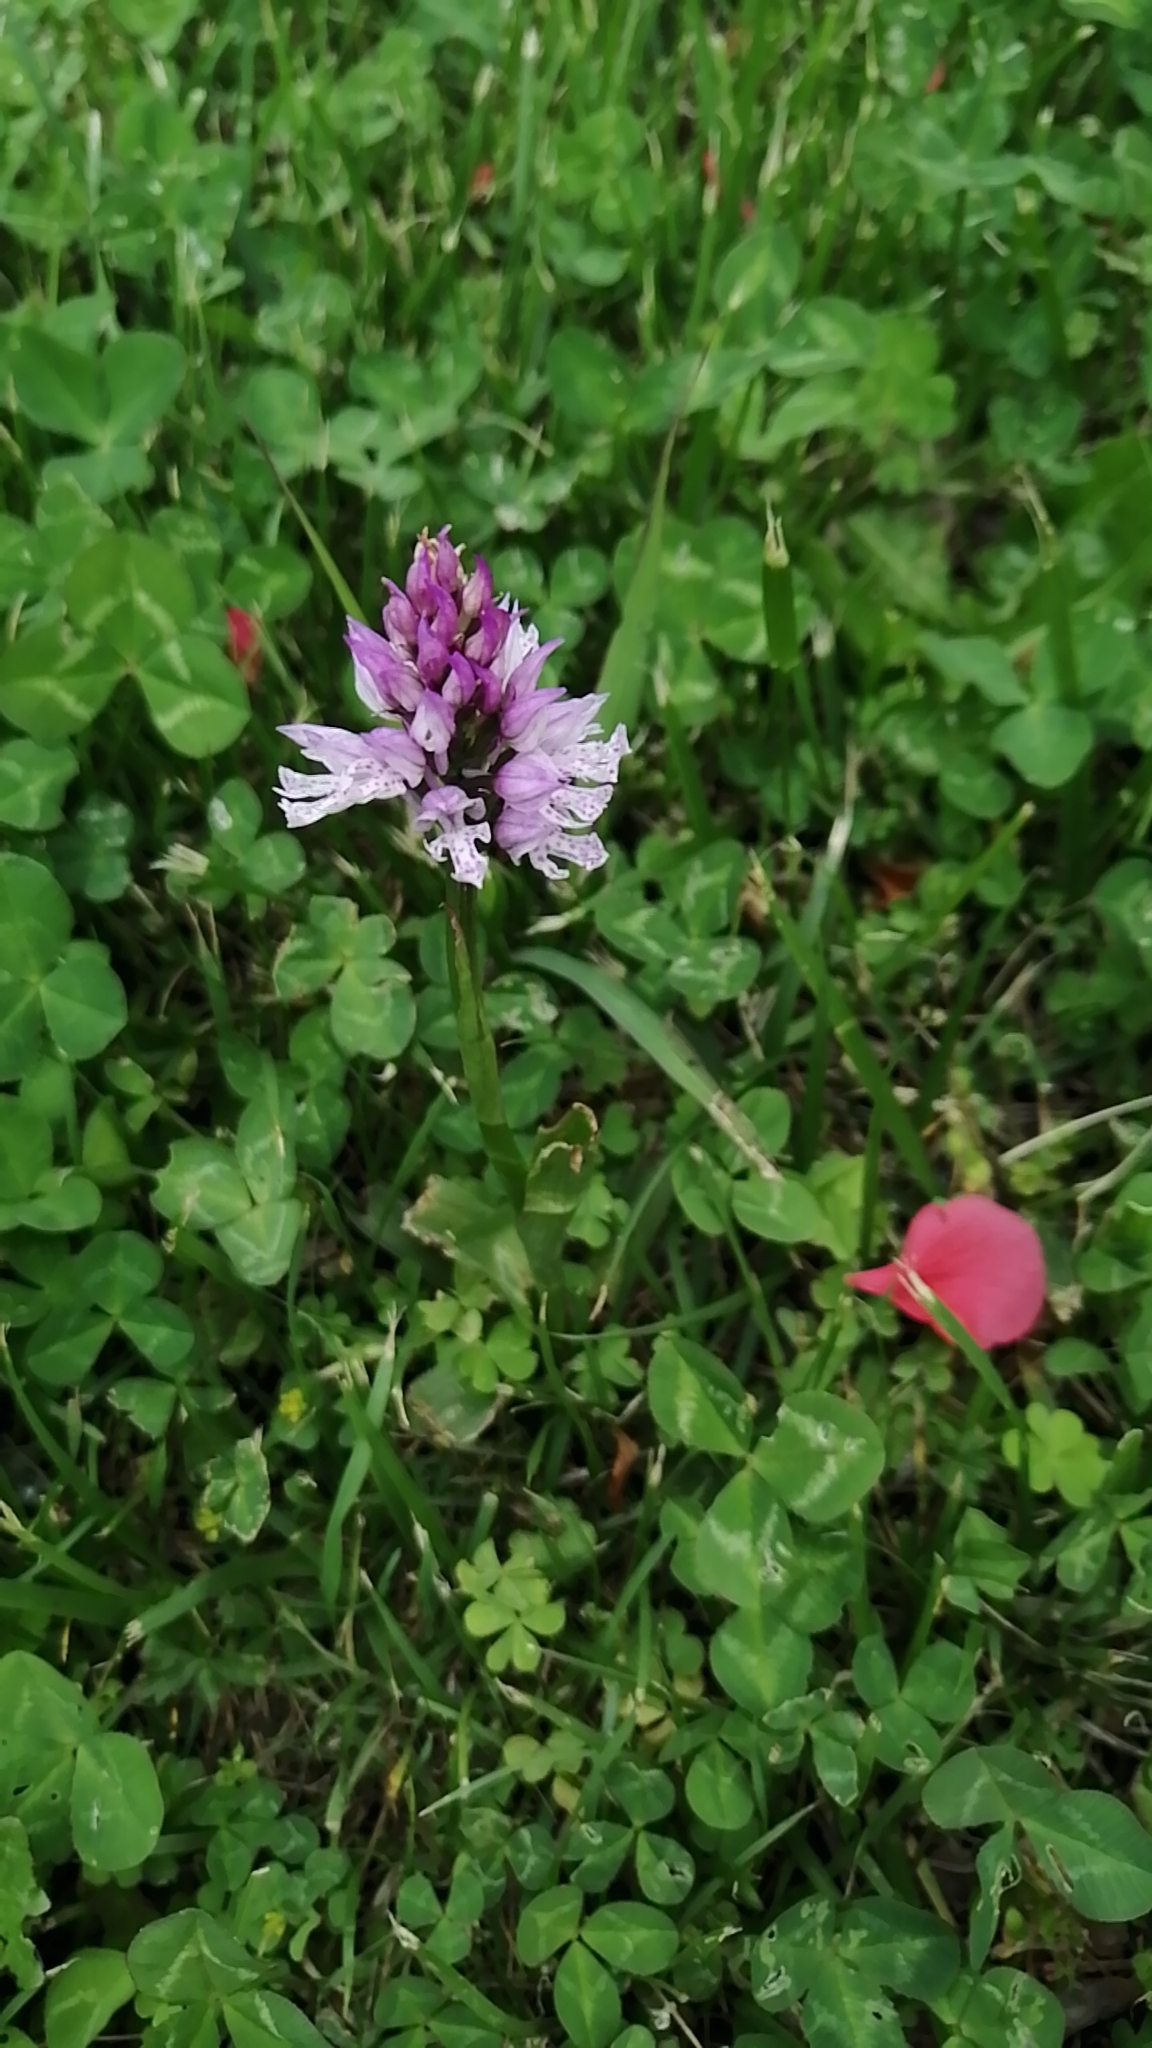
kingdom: Plantae
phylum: Tracheophyta
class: Liliopsida
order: Asparagales
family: Orchidaceae
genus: Neotinea
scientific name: Neotinea tridentata
